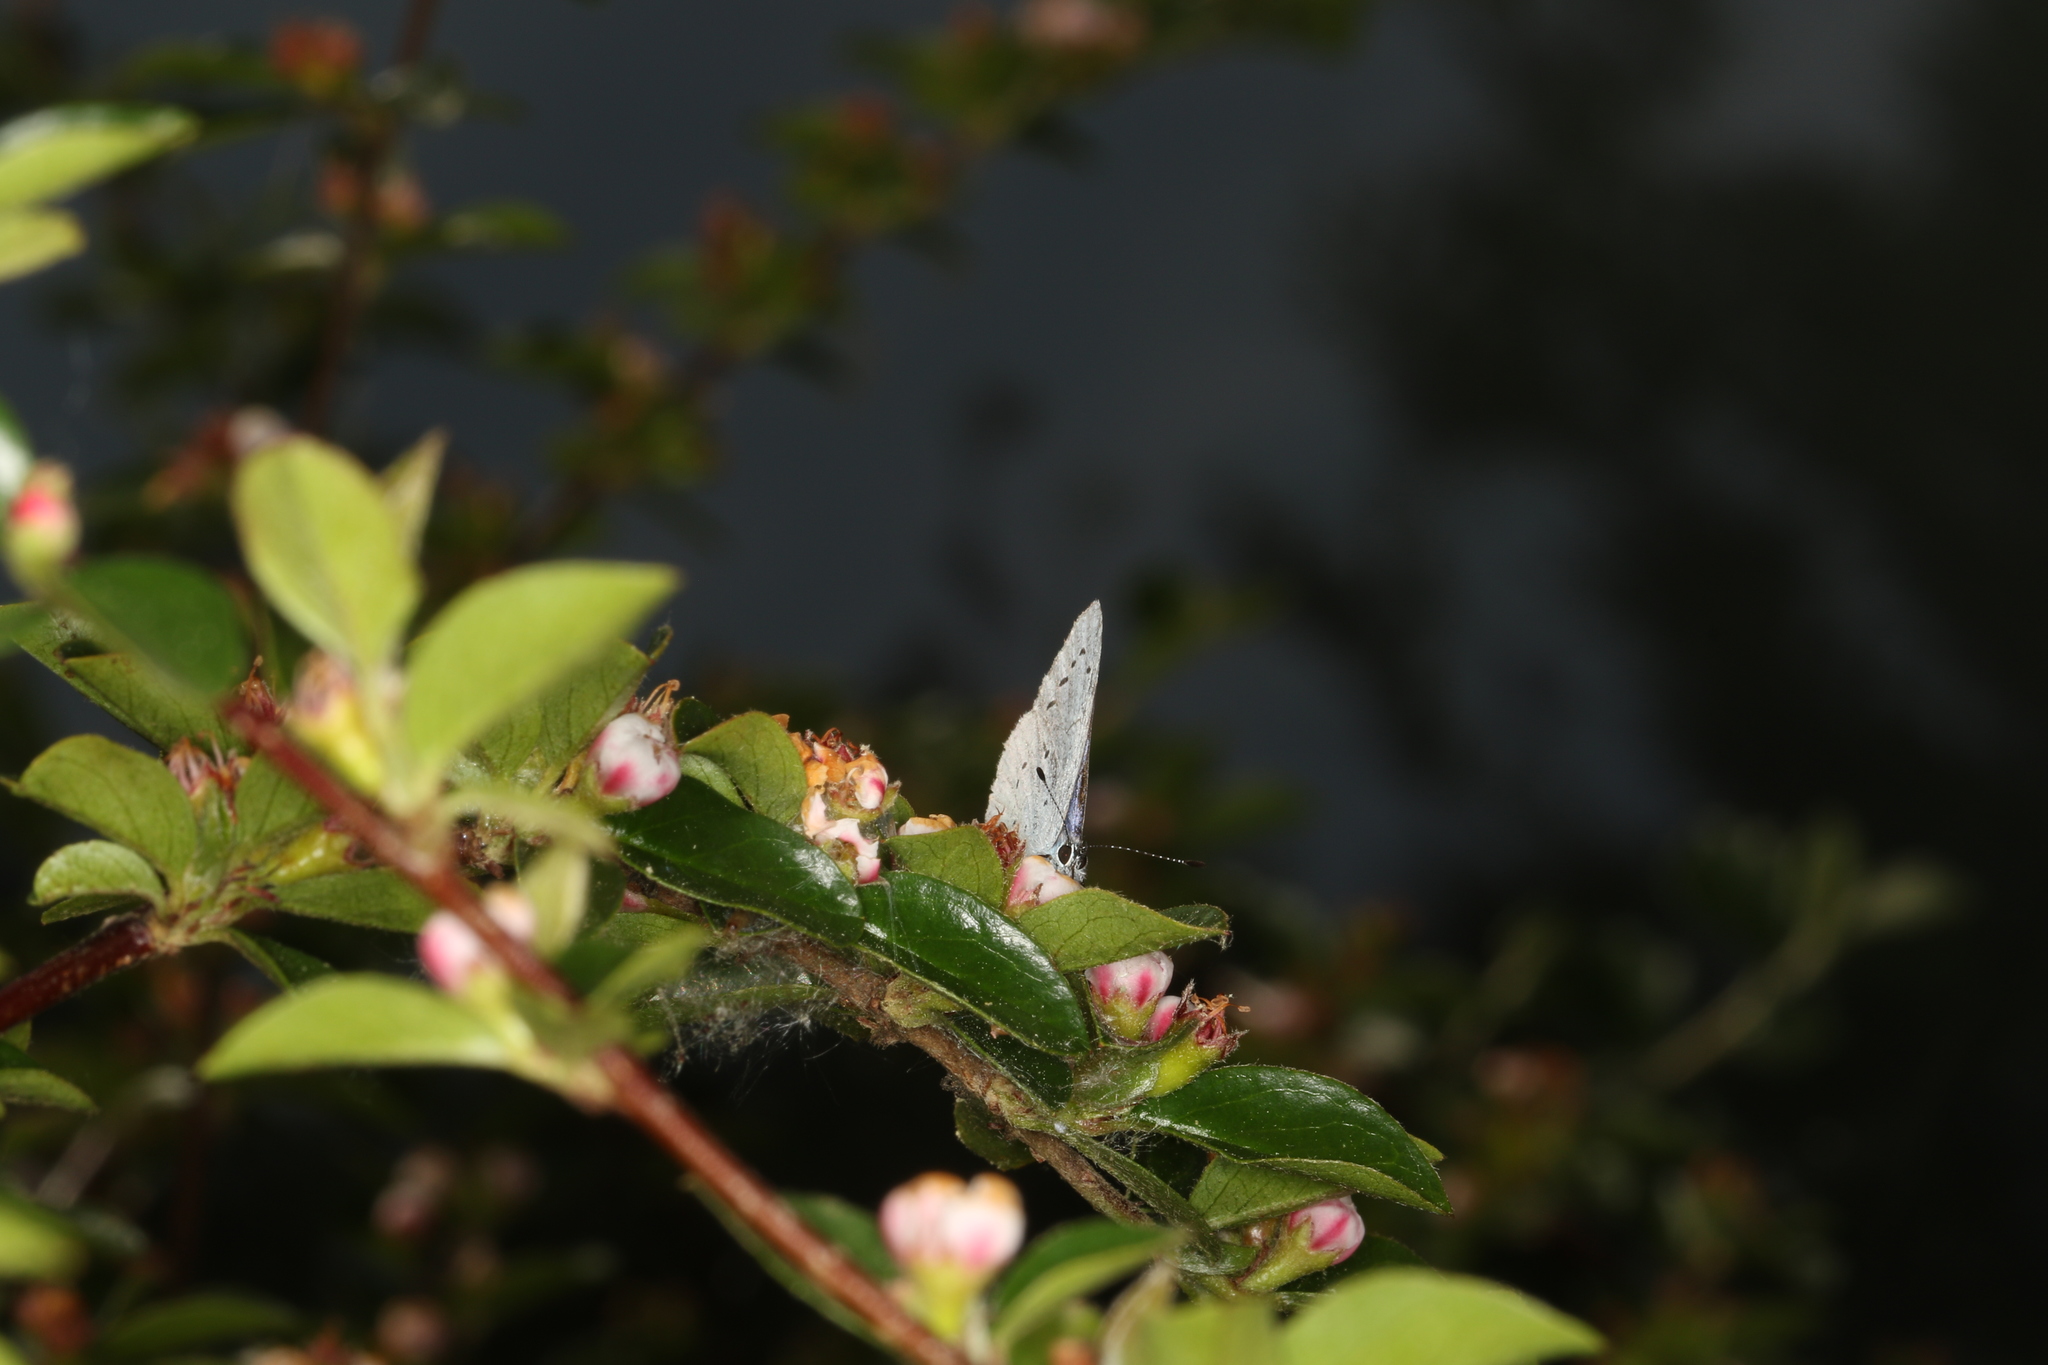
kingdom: Animalia
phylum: Arthropoda
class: Insecta
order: Lepidoptera
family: Lycaenidae
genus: Celastrina
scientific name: Celastrina argiolus
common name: Holly blue
